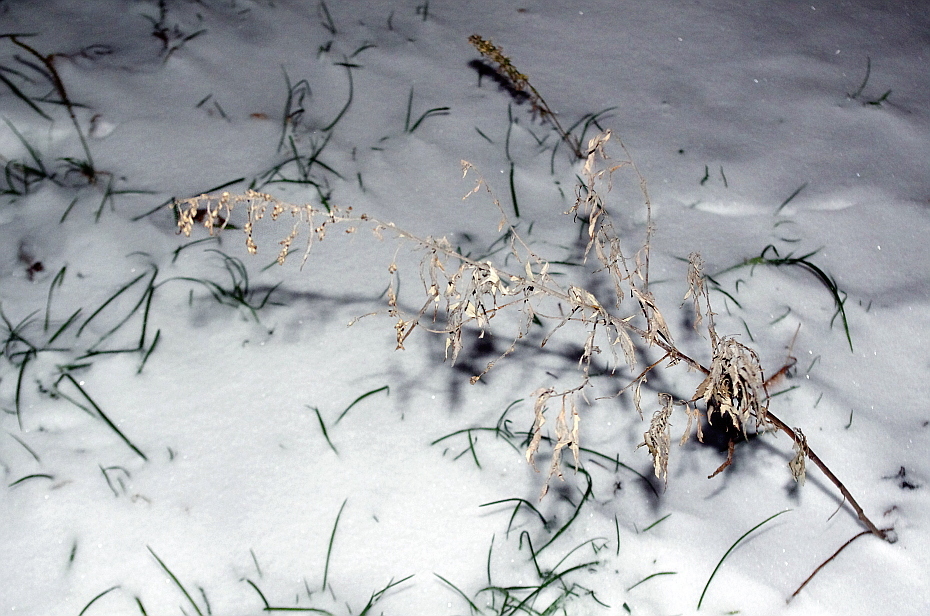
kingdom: Plantae
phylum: Tracheophyta
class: Magnoliopsida
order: Asterales
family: Asteraceae
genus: Artemisia
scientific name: Artemisia vulgaris
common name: Mugwort
